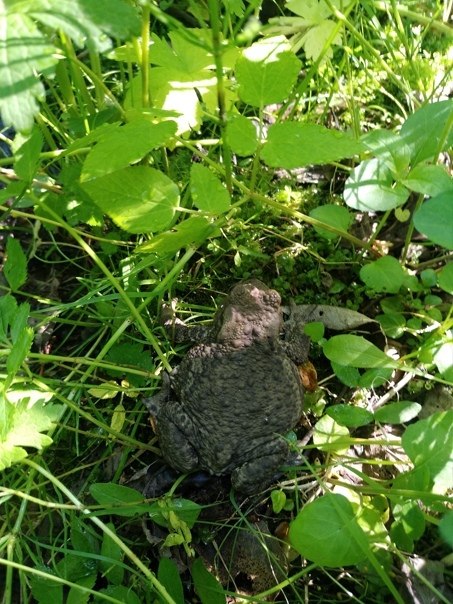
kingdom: Animalia
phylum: Chordata
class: Amphibia
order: Anura
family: Bufonidae
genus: Bufo
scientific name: Bufo bufo
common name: Common toad
